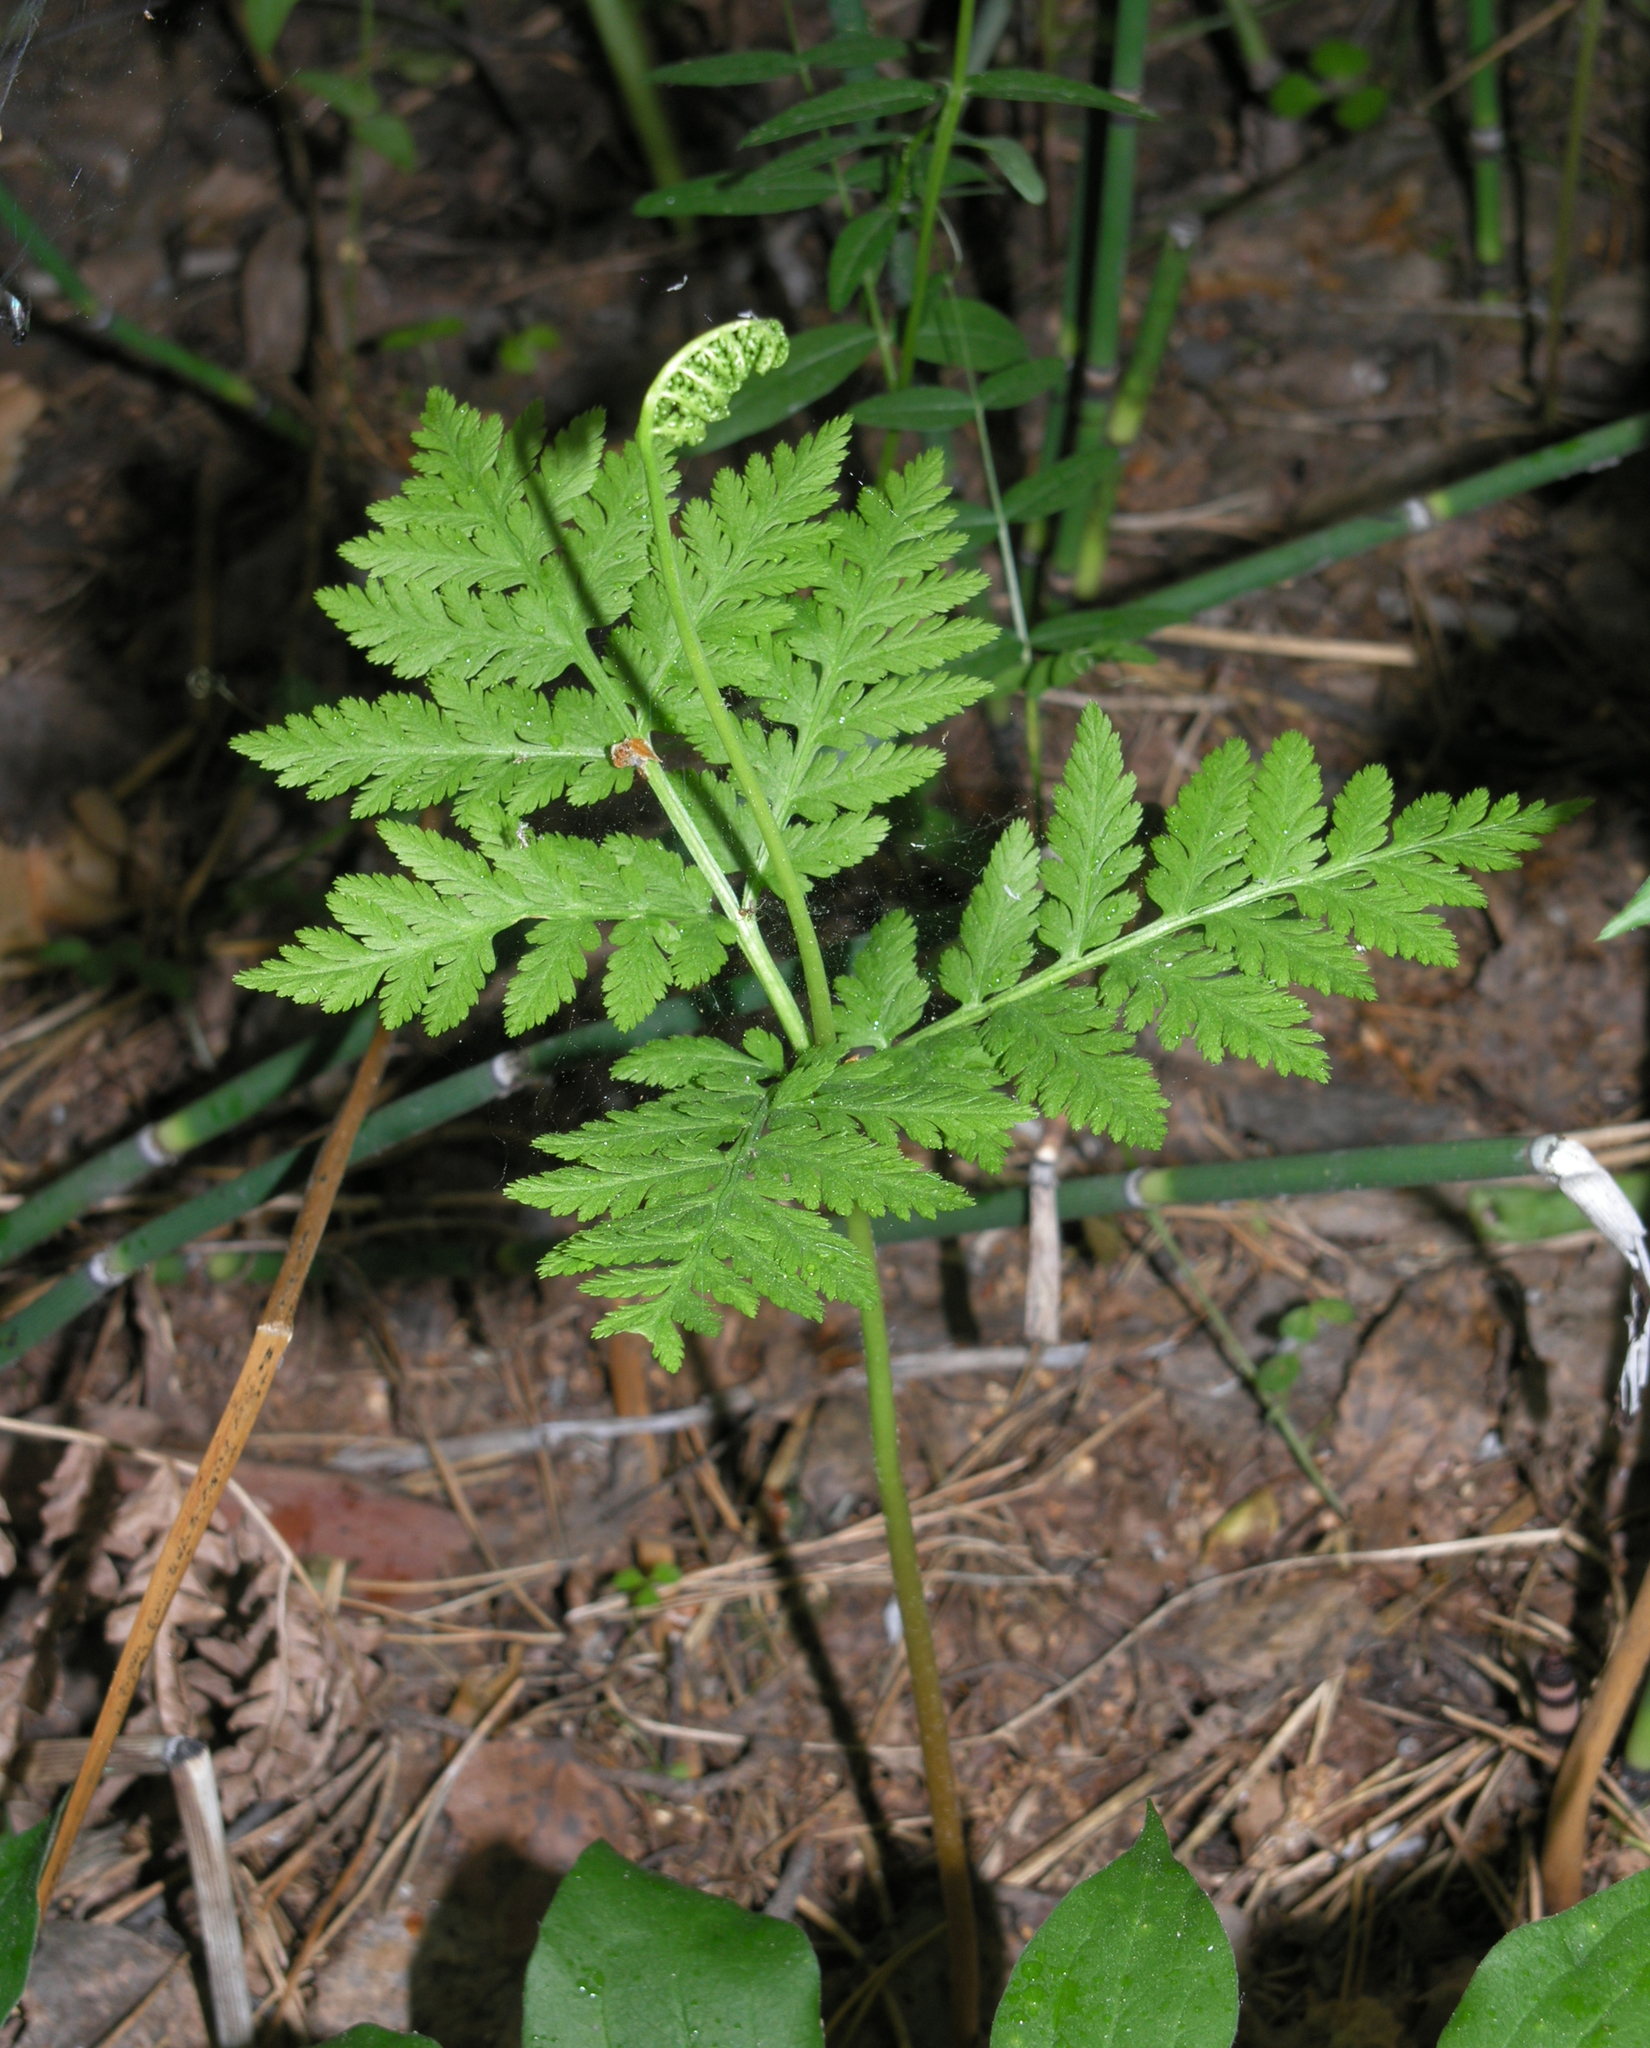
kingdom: Plantae
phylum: Tracheophyta
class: Polypodiopsida
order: Ophioglossales
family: Ophioglossaceae
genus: Botrypus
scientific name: Botrypus virginianus
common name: Common grapefern
